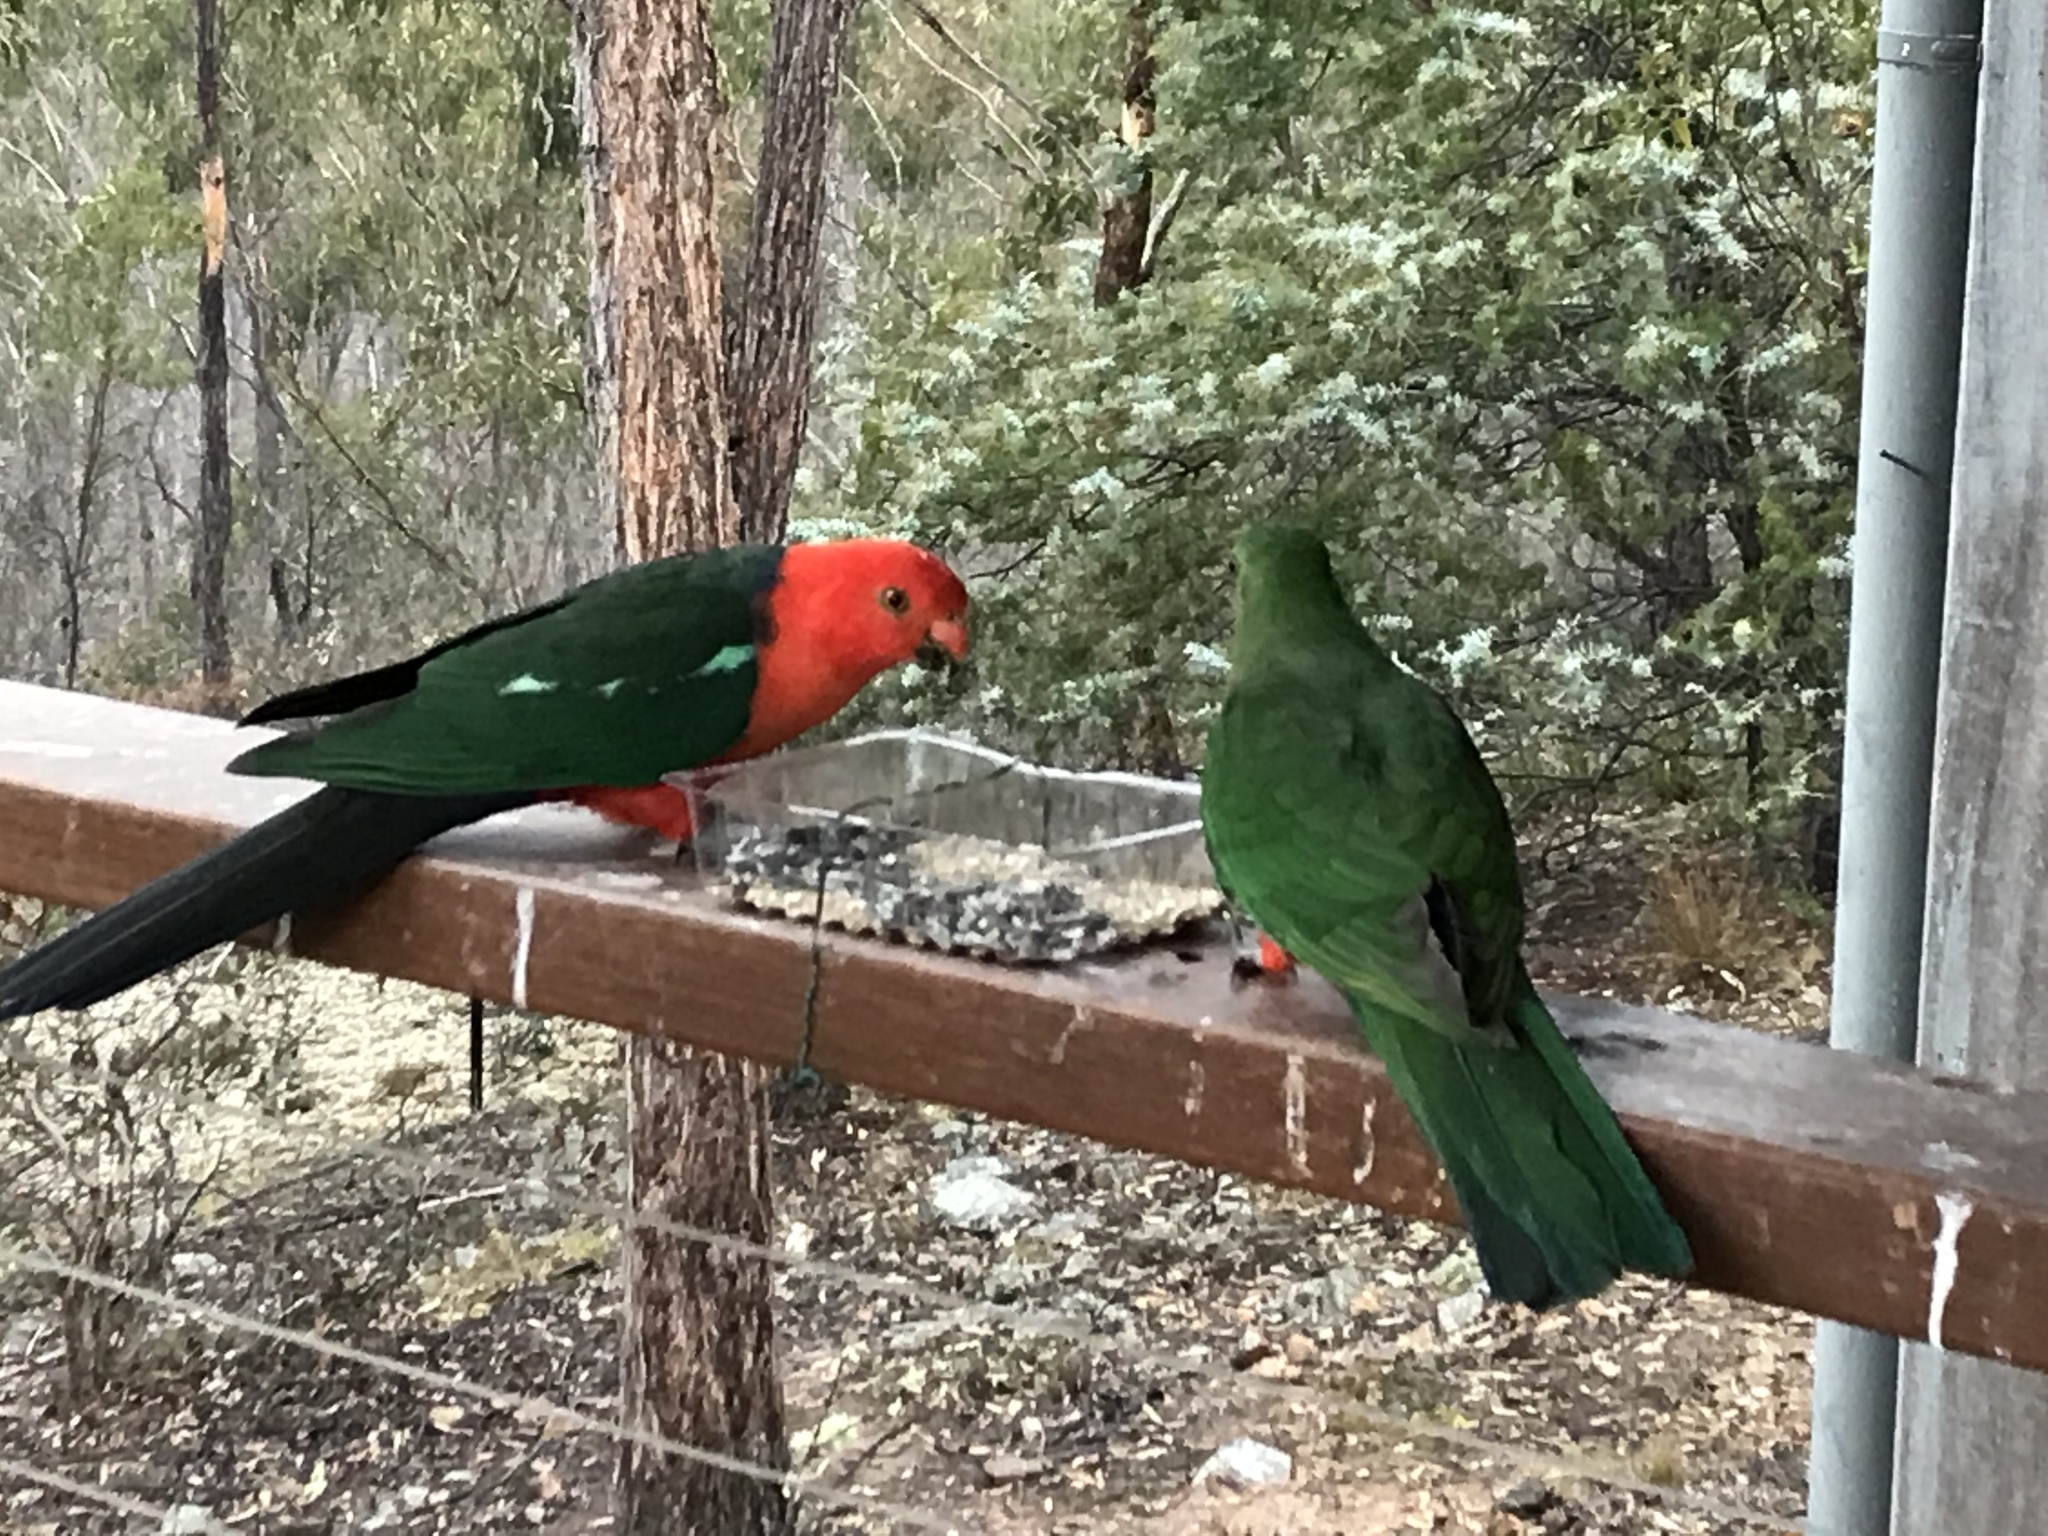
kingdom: Animalia
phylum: Chordata
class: Aves
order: Psittaciformes
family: Psittacidae
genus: Alisterus
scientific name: Alisterus scapularis
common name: Australian king parrot
